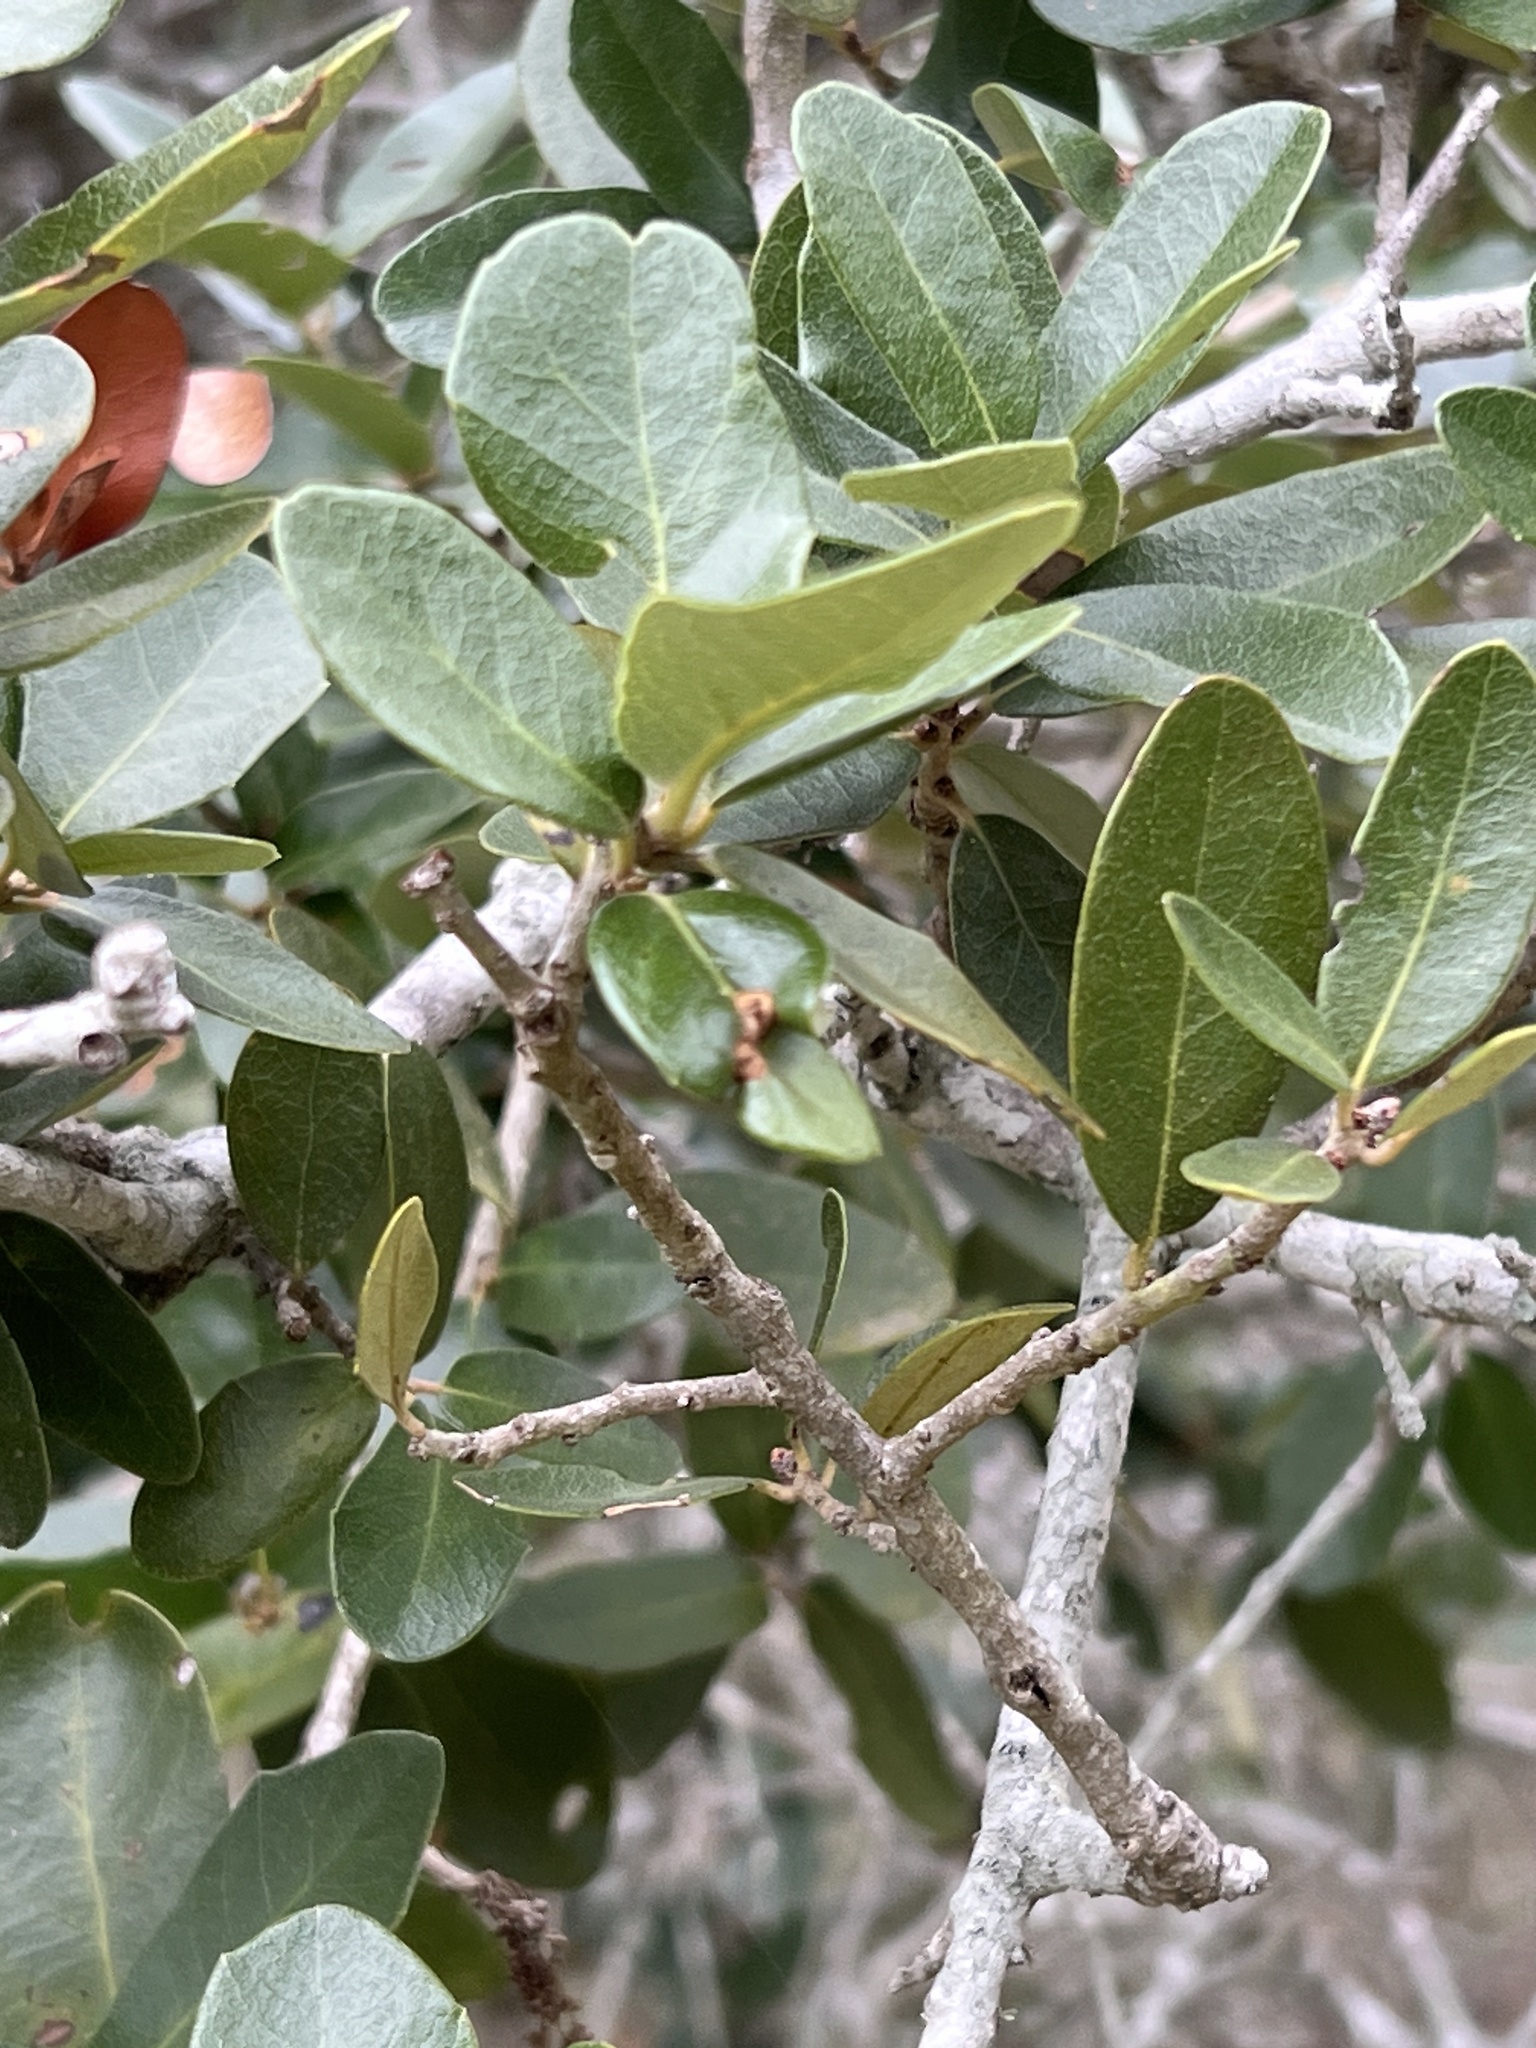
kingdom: Plantae
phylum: Tracheophyta
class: Magnoliopsida
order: Fagales
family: Fagaceae
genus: Quercus
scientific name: Quercus fusiformis
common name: Texas live oak
